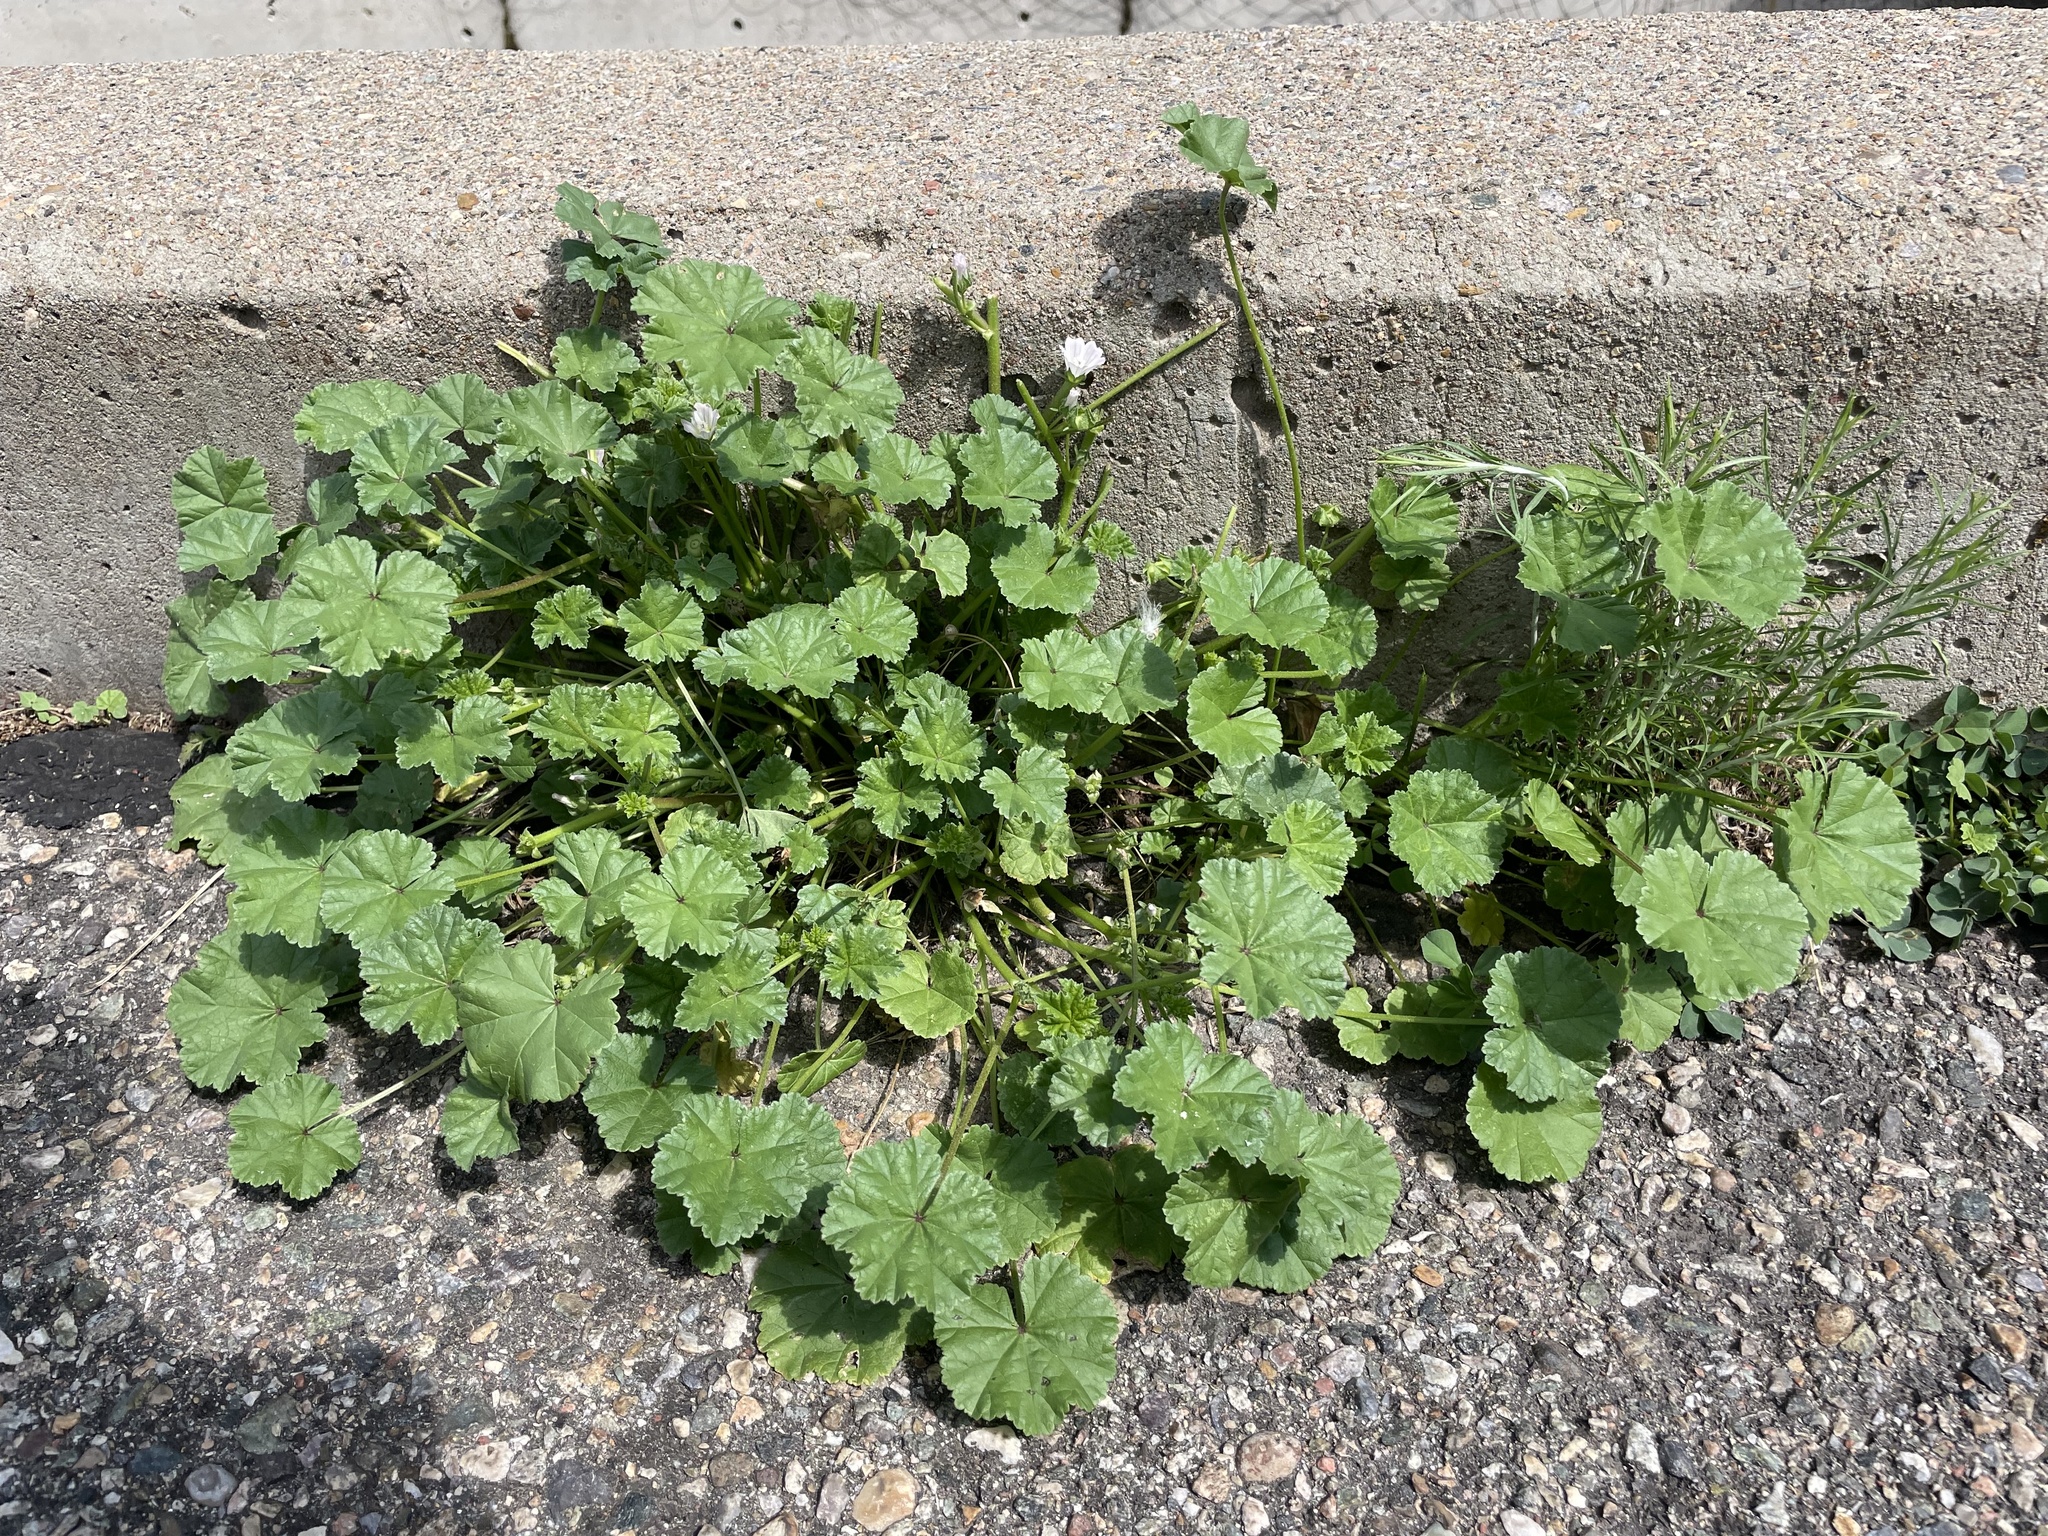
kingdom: Plantae
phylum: Tracheophyta
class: Magnoliopsida
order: Malvales
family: Malvaceae
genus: Malva
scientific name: Malva neglecta
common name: Common mallow
